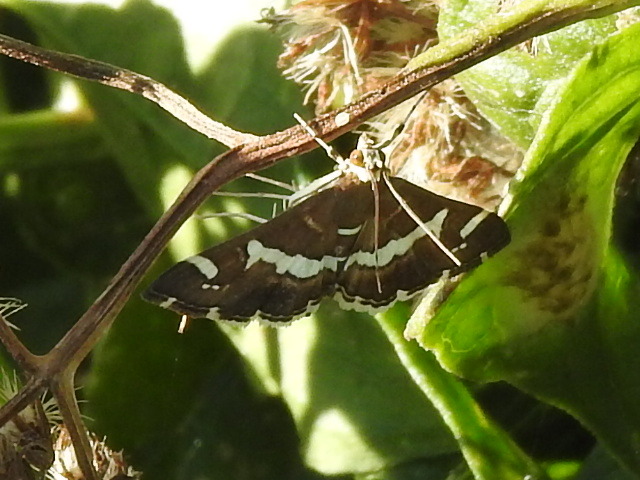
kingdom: Animalia
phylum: Arthropoda
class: Insecta
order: Lepidoptera
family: Crambidae
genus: Spoladea
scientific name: Spoladea recurvalis
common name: Beet webworm moth
